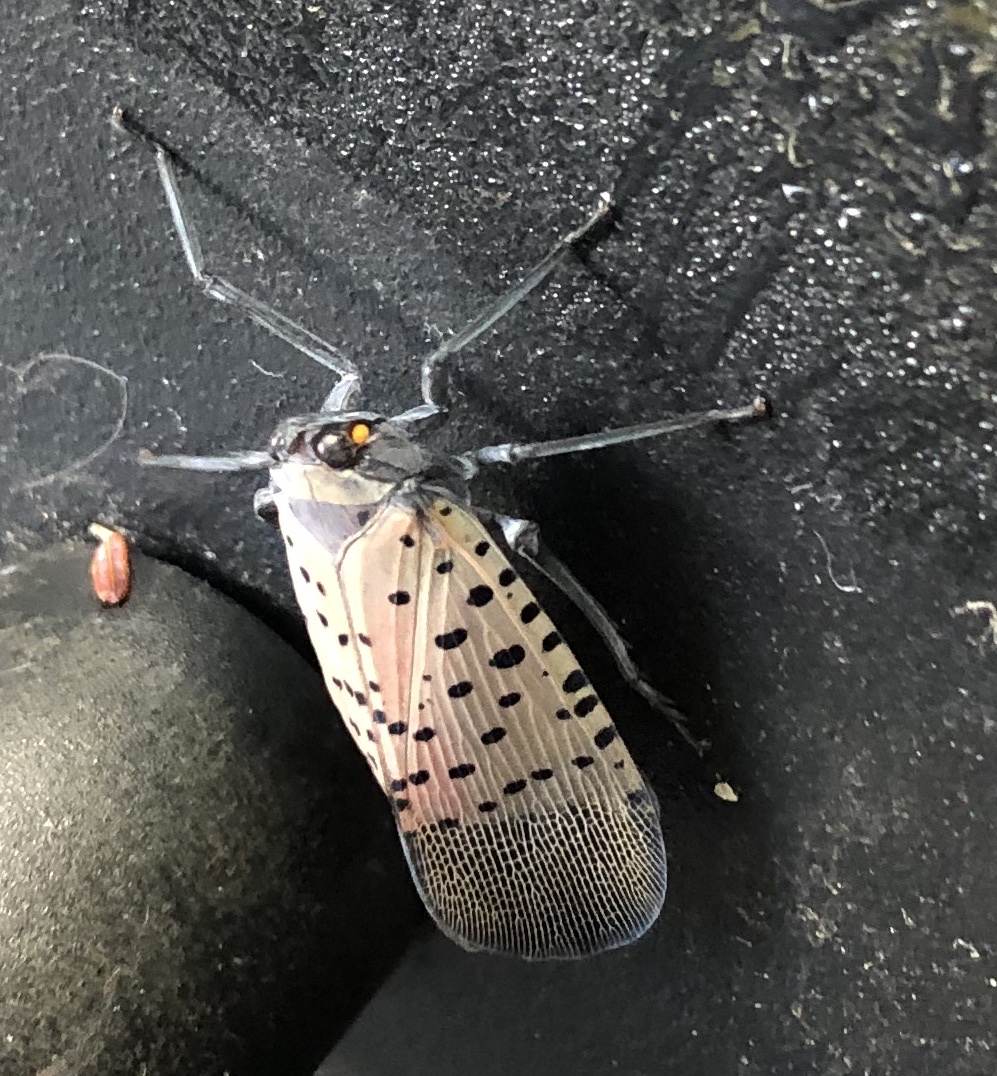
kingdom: Animalia
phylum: Arthropoda
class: Insecta
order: Hemiptera
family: Fulgoridae
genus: Lycorma
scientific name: Lycorma delicatula
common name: Spotted lanternfly
